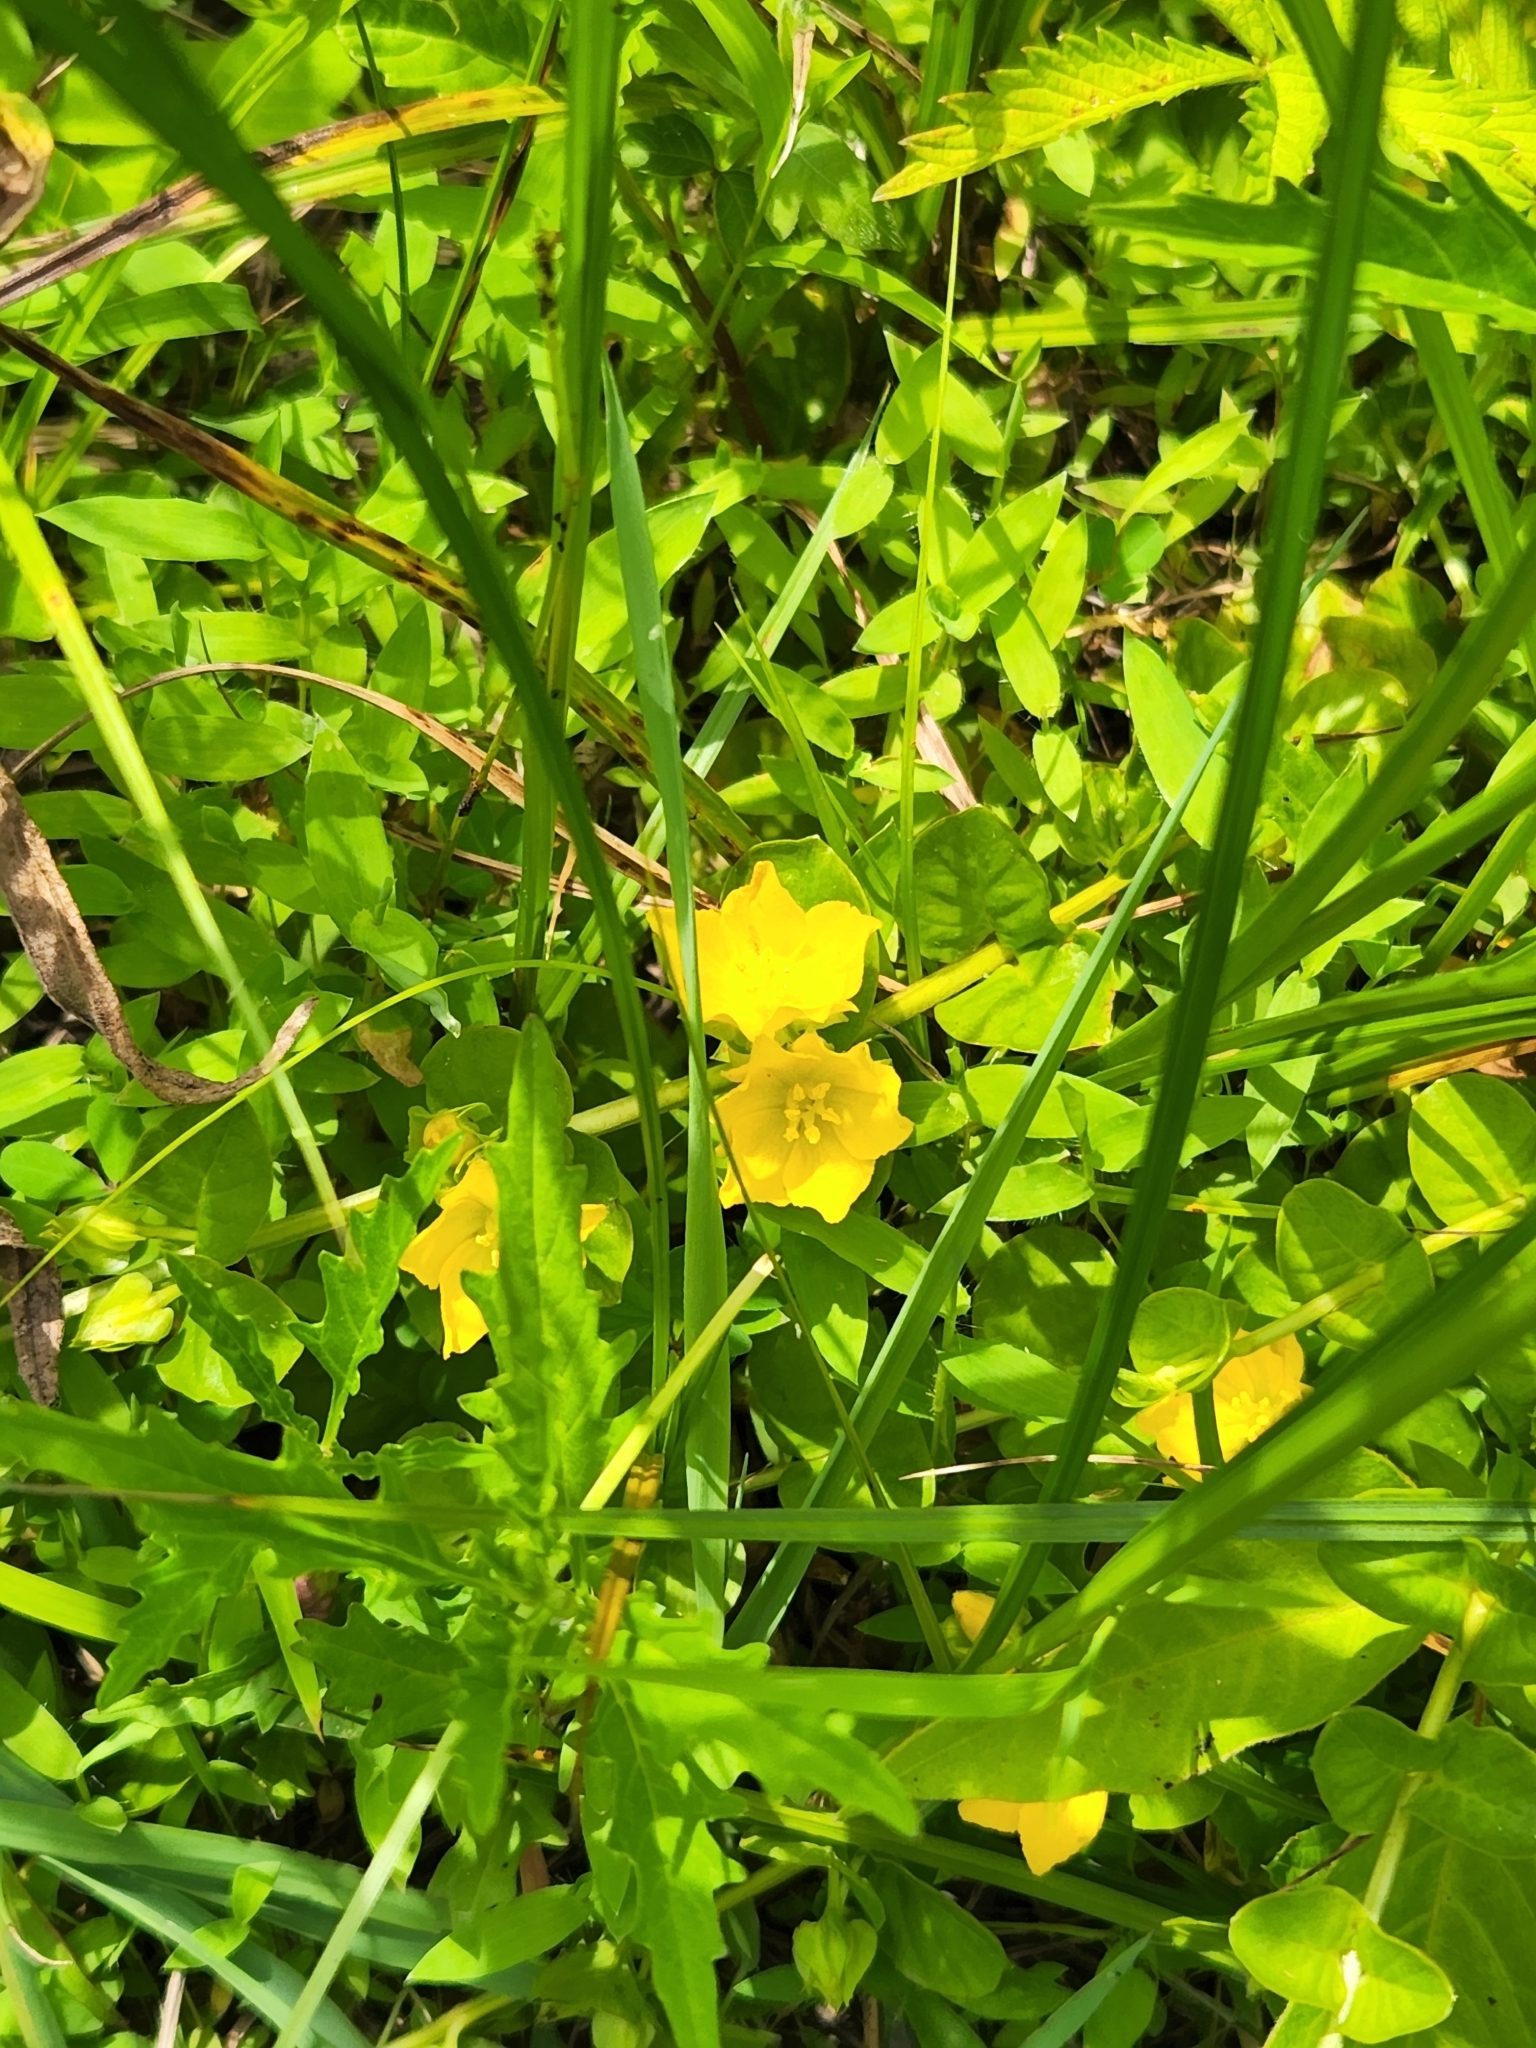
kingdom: Plantae
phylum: Tracheophyta
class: Magnoliopsida
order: Ericales
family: Primulaceae
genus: Lysimachia
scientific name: Lysimachia nummularia
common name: Moneywort
